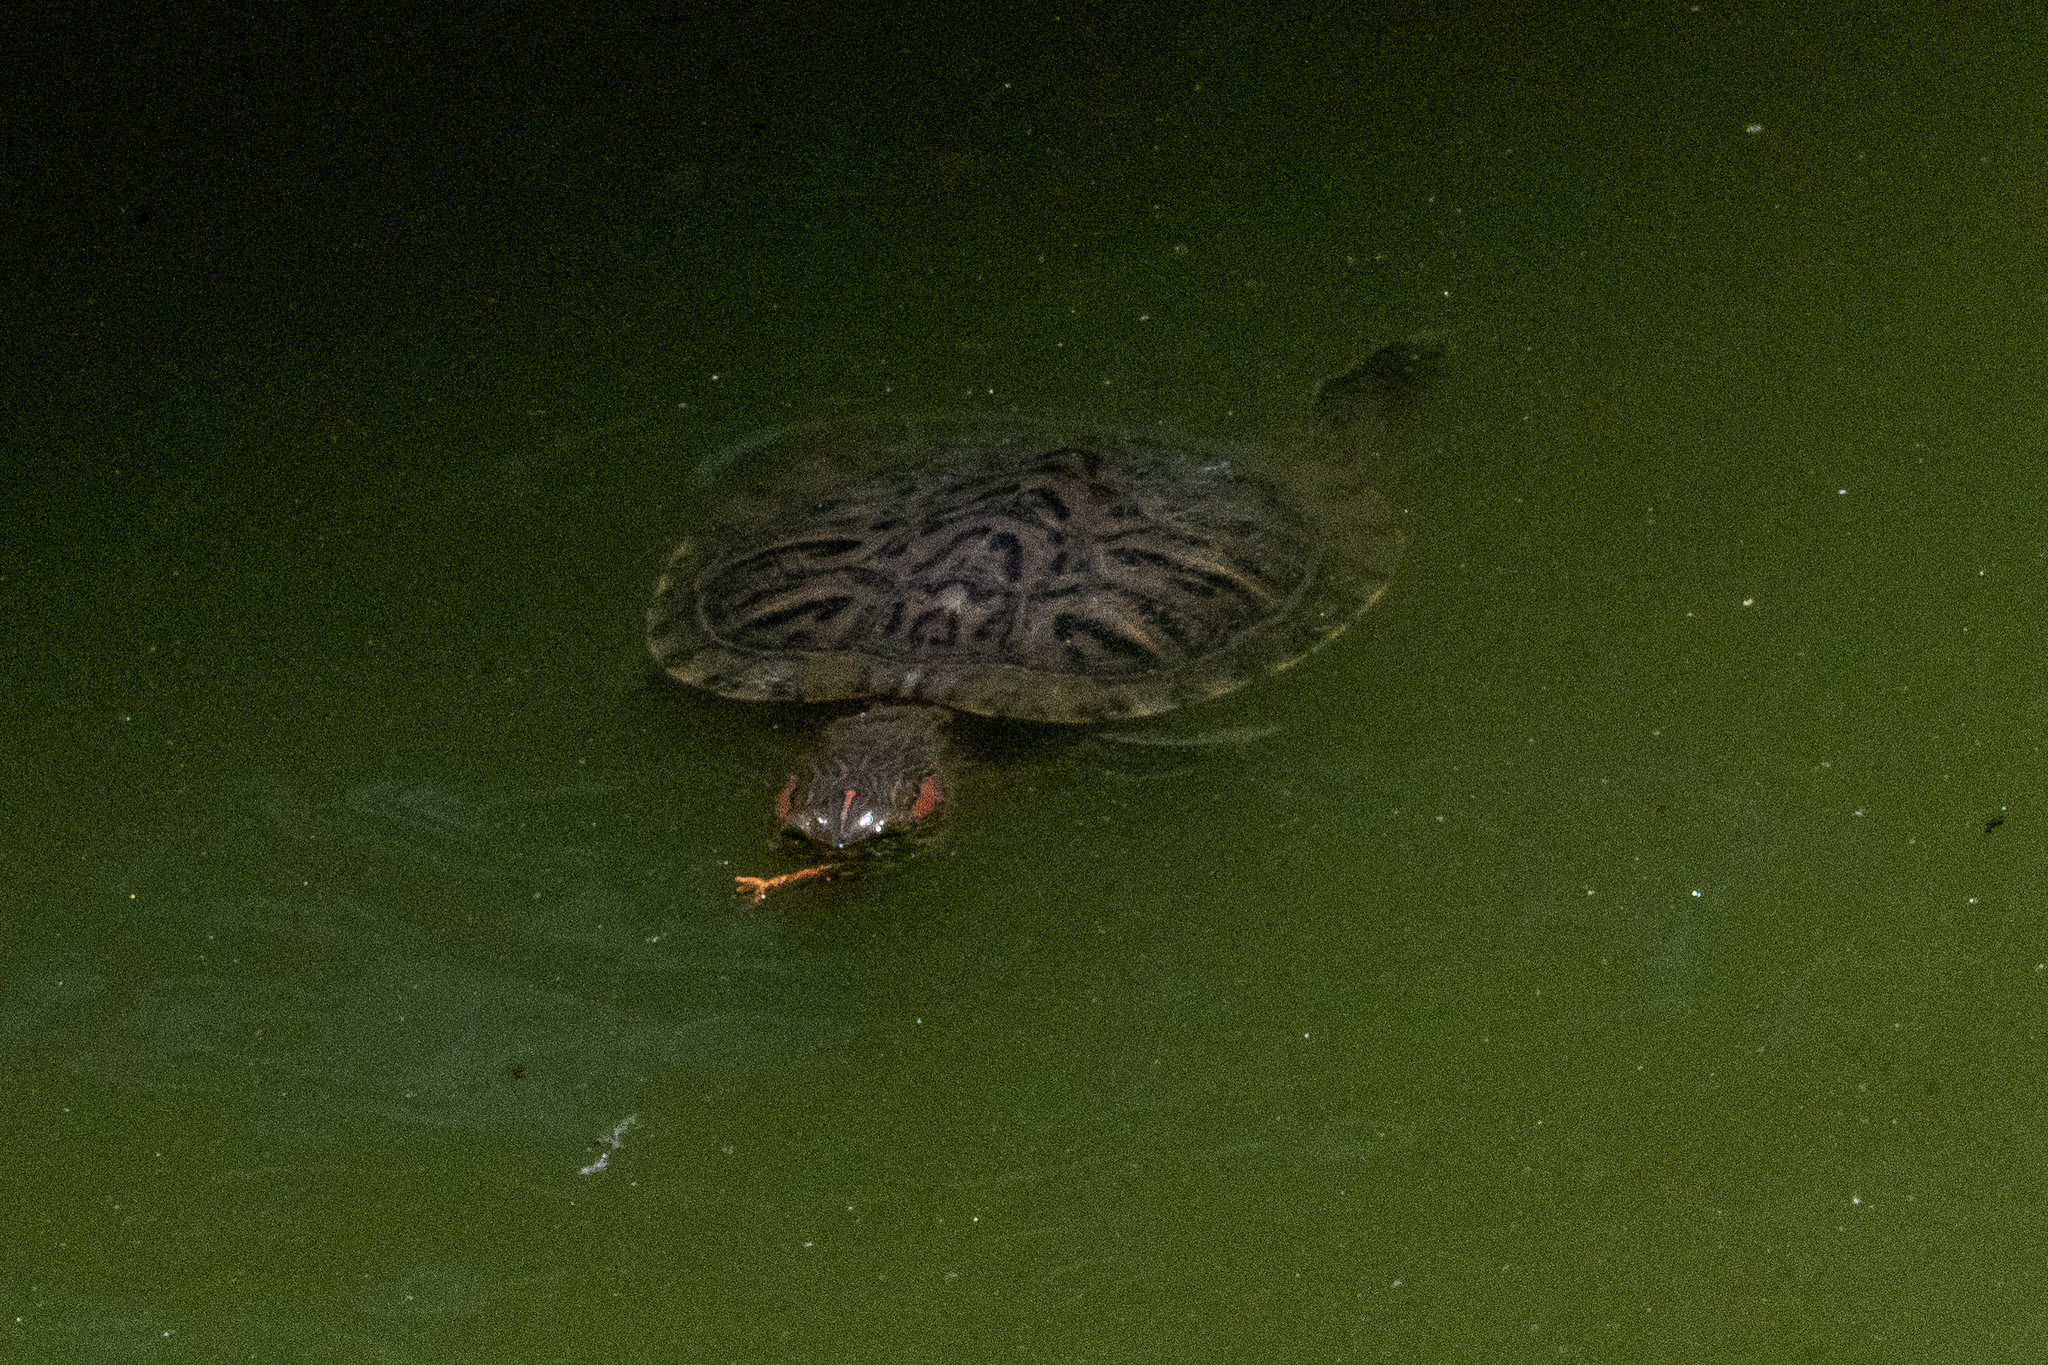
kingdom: Animalia
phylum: Chordata
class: Testudines
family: Emydidae
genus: Trachemys
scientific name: Trachemys scripta
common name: Slider
